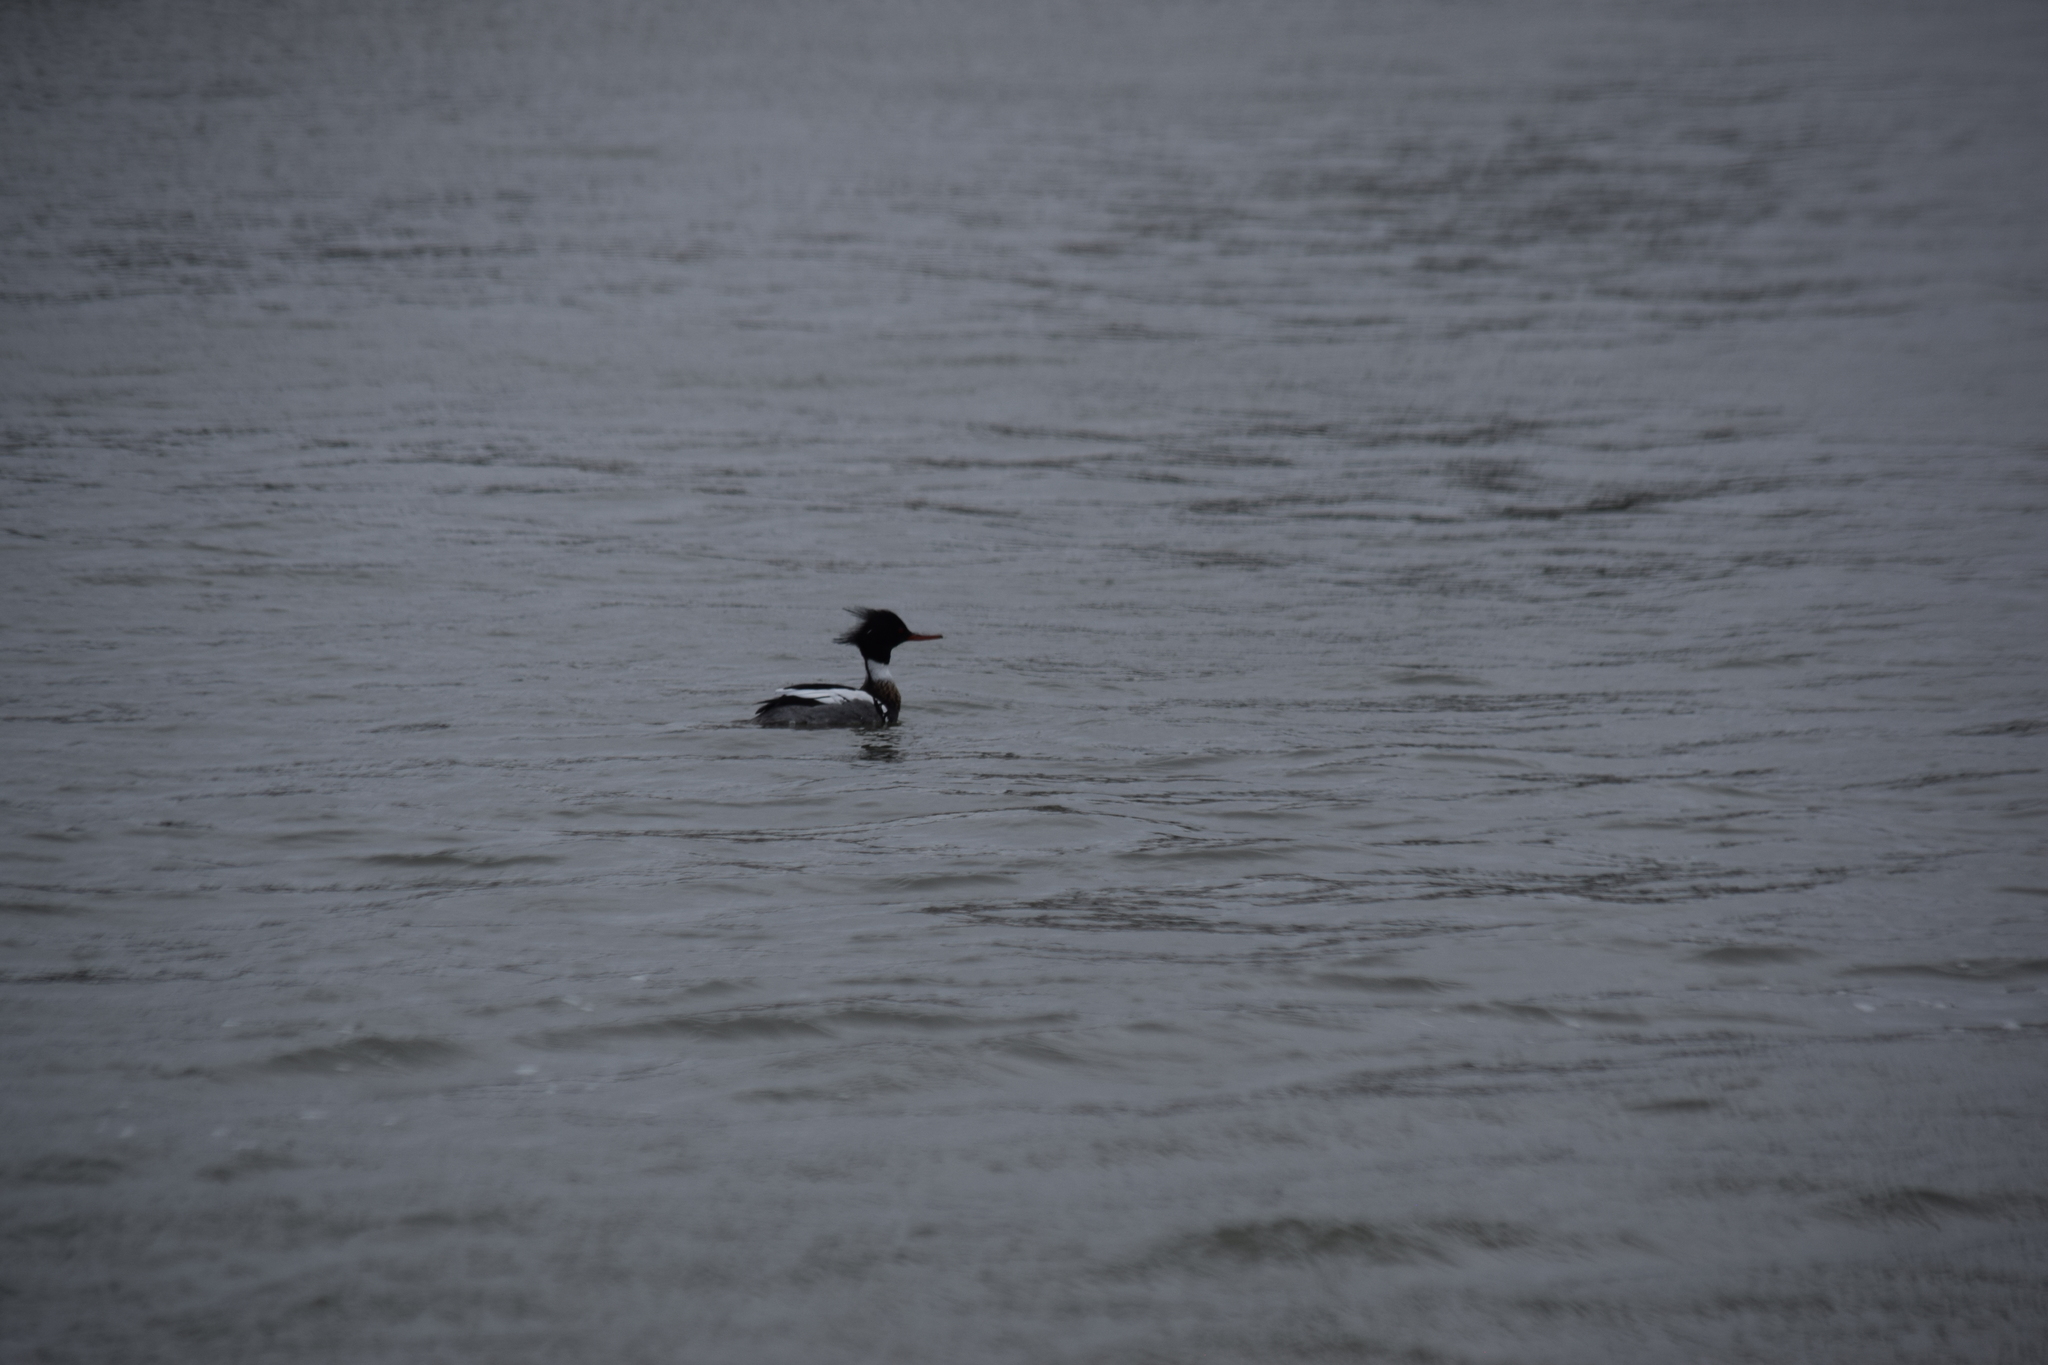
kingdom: Animalia
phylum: Chordata
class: Aves
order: Anseriformes
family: Anatidae
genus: Mergus
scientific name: Mergus serrator
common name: Red-breasted merganser
